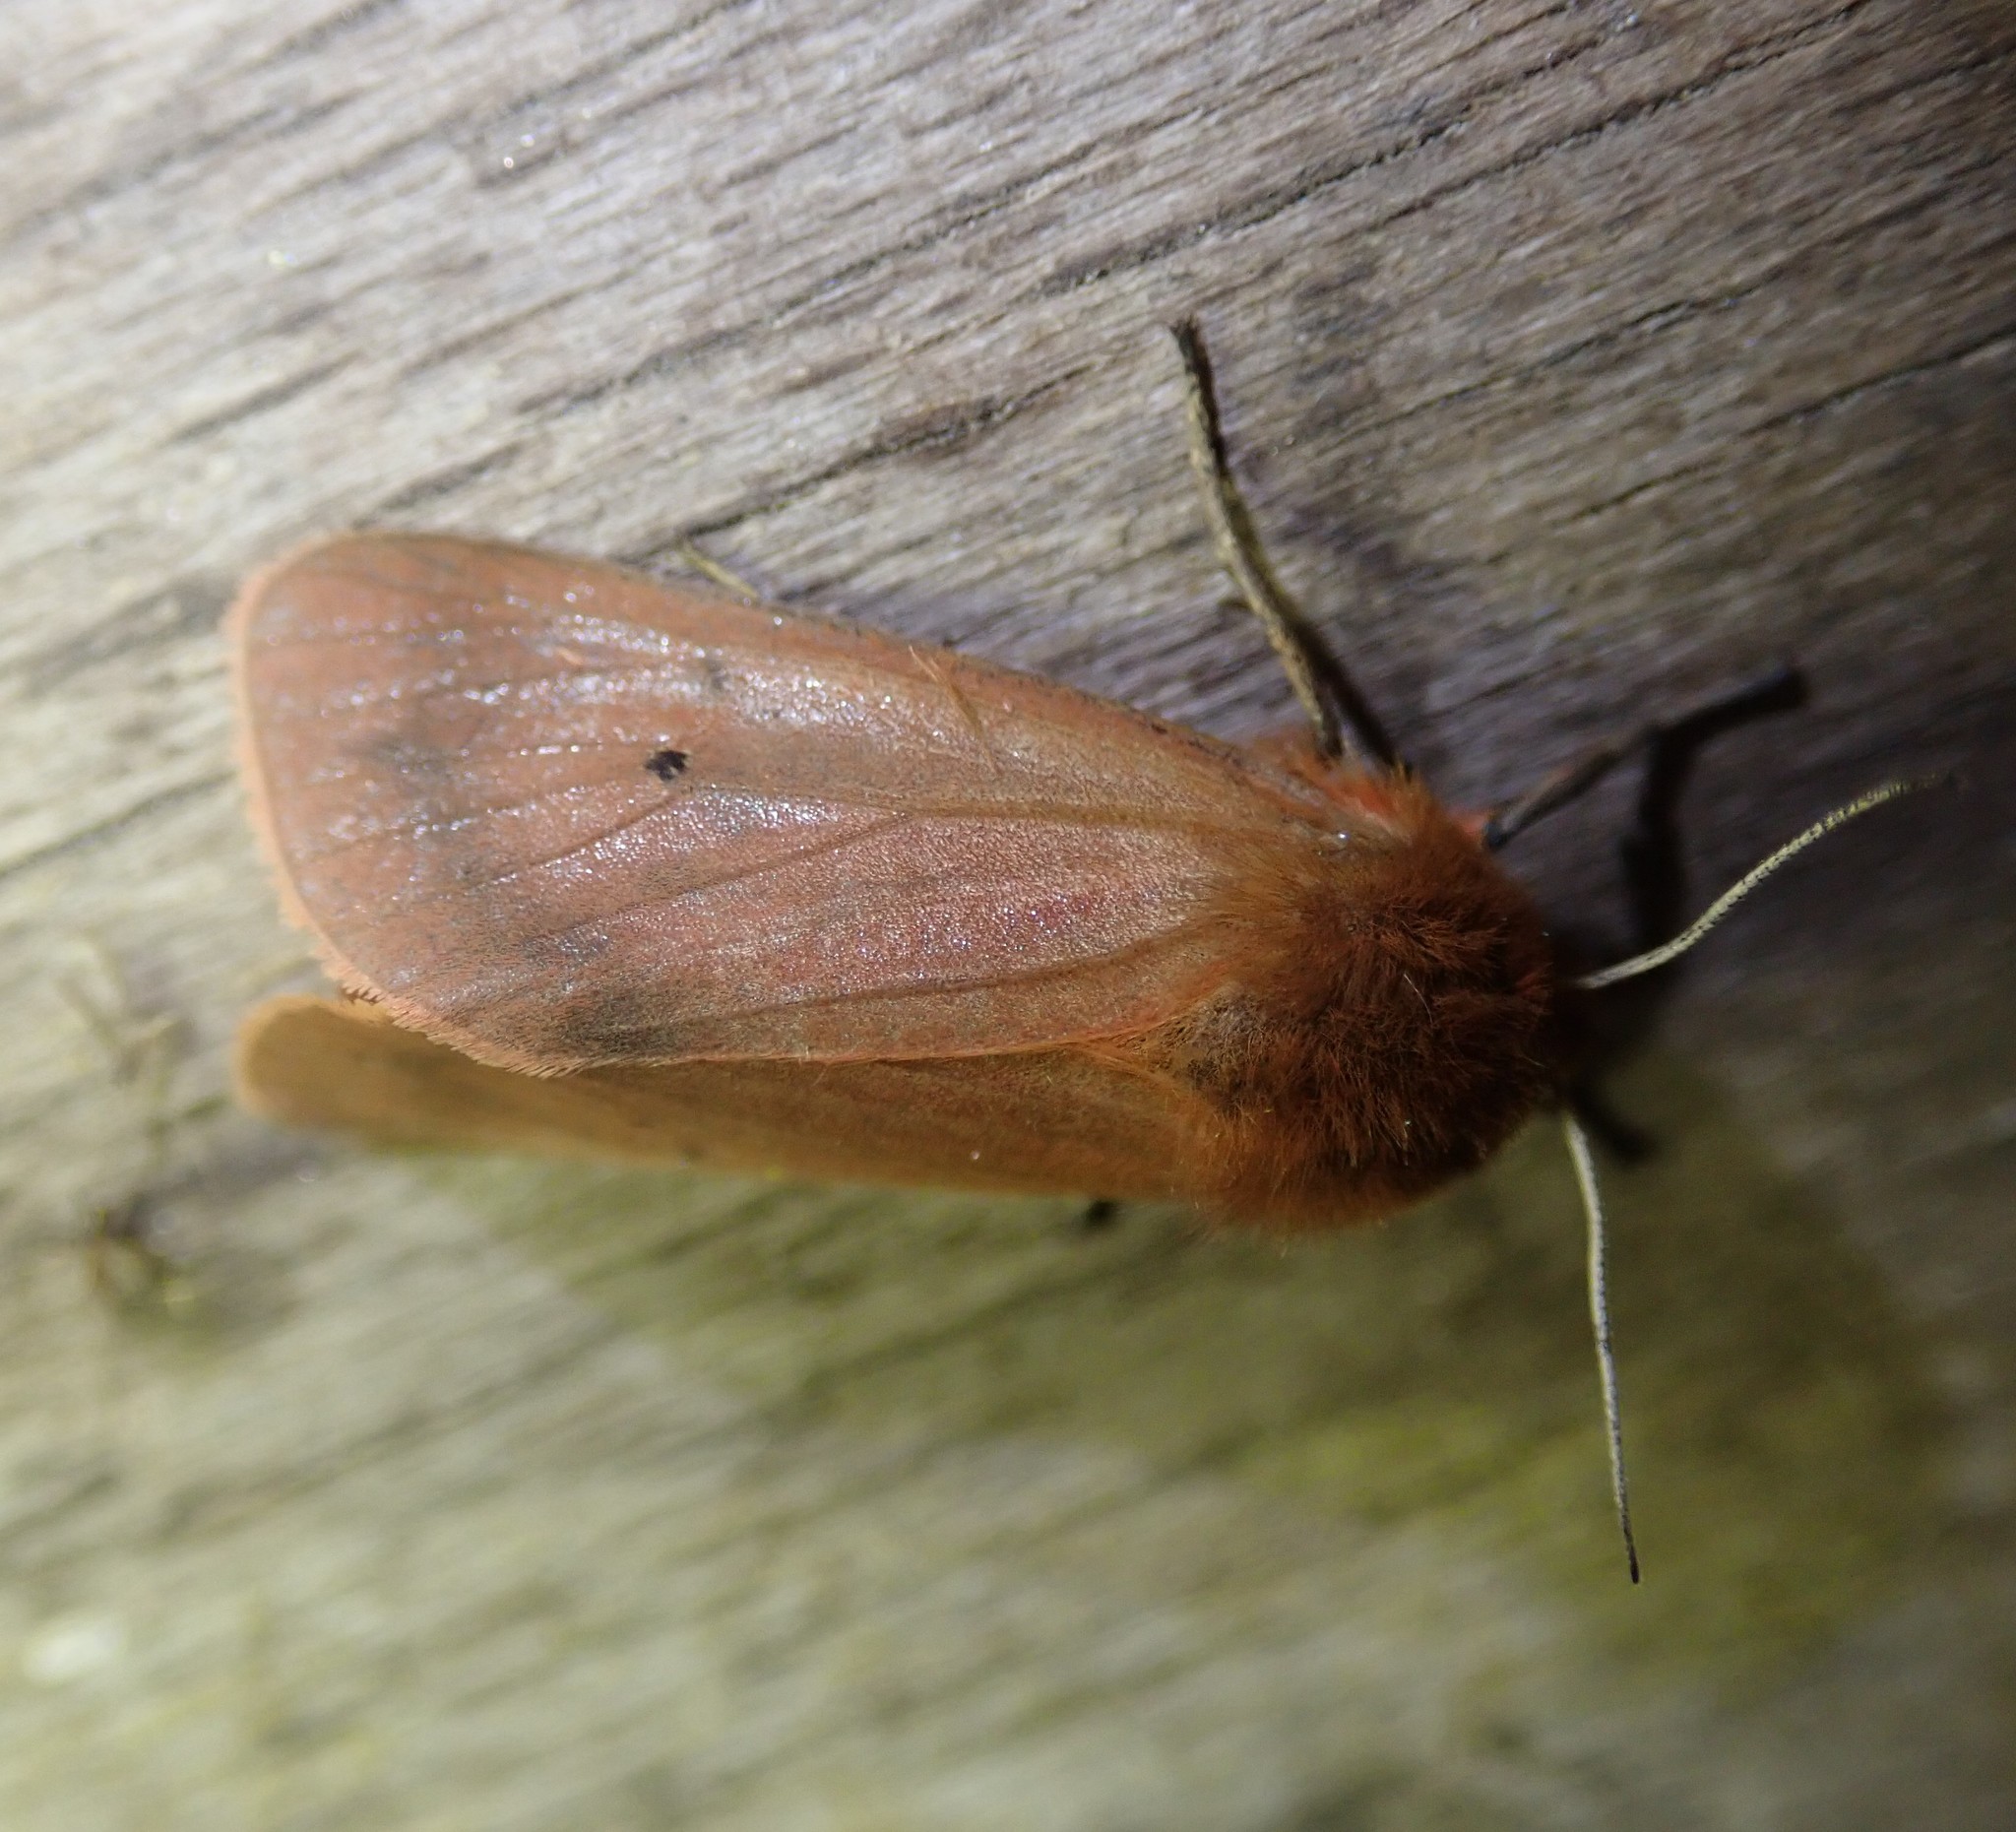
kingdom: Animalia
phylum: Arthropoda
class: Insecta
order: Lepidoptera
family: Erebidae
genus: Phragmatobia
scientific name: Phragmatobia fuliginosa
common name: Ruby tiger
